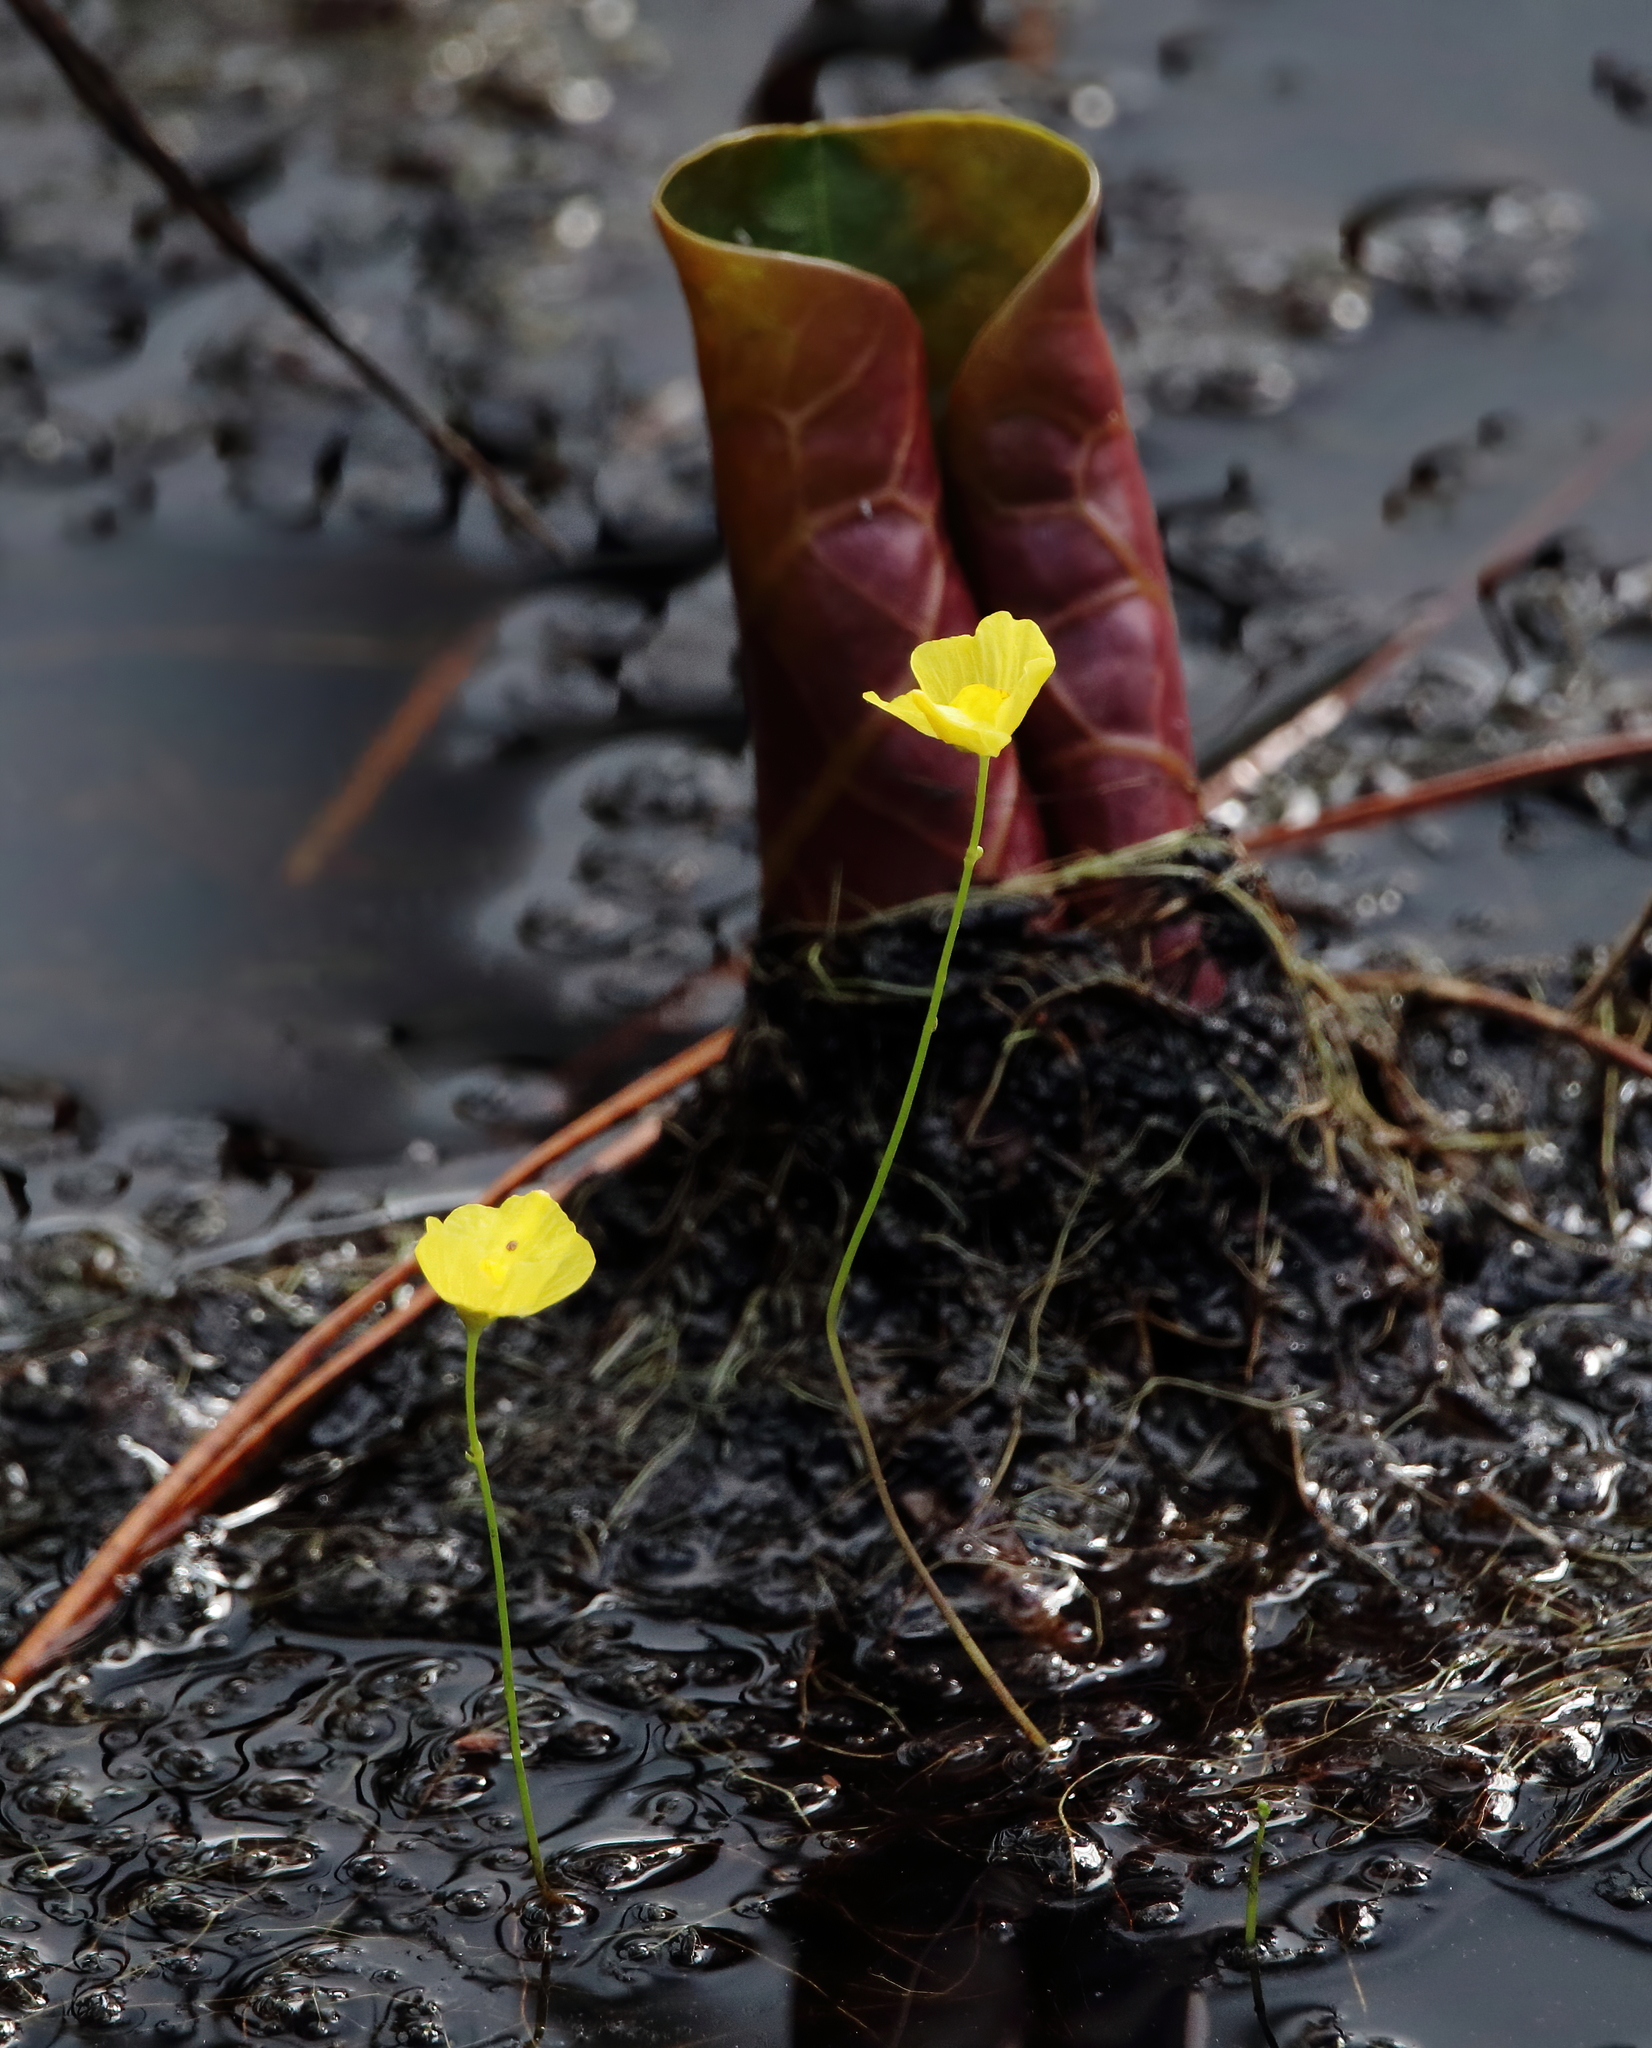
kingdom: Plantae
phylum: Tracheophyta
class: Magnoliopsida
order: Lamiales
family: Lentibulariaceae
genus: Utricularia
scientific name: Utricularia gibba
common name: Humped bladderwort
